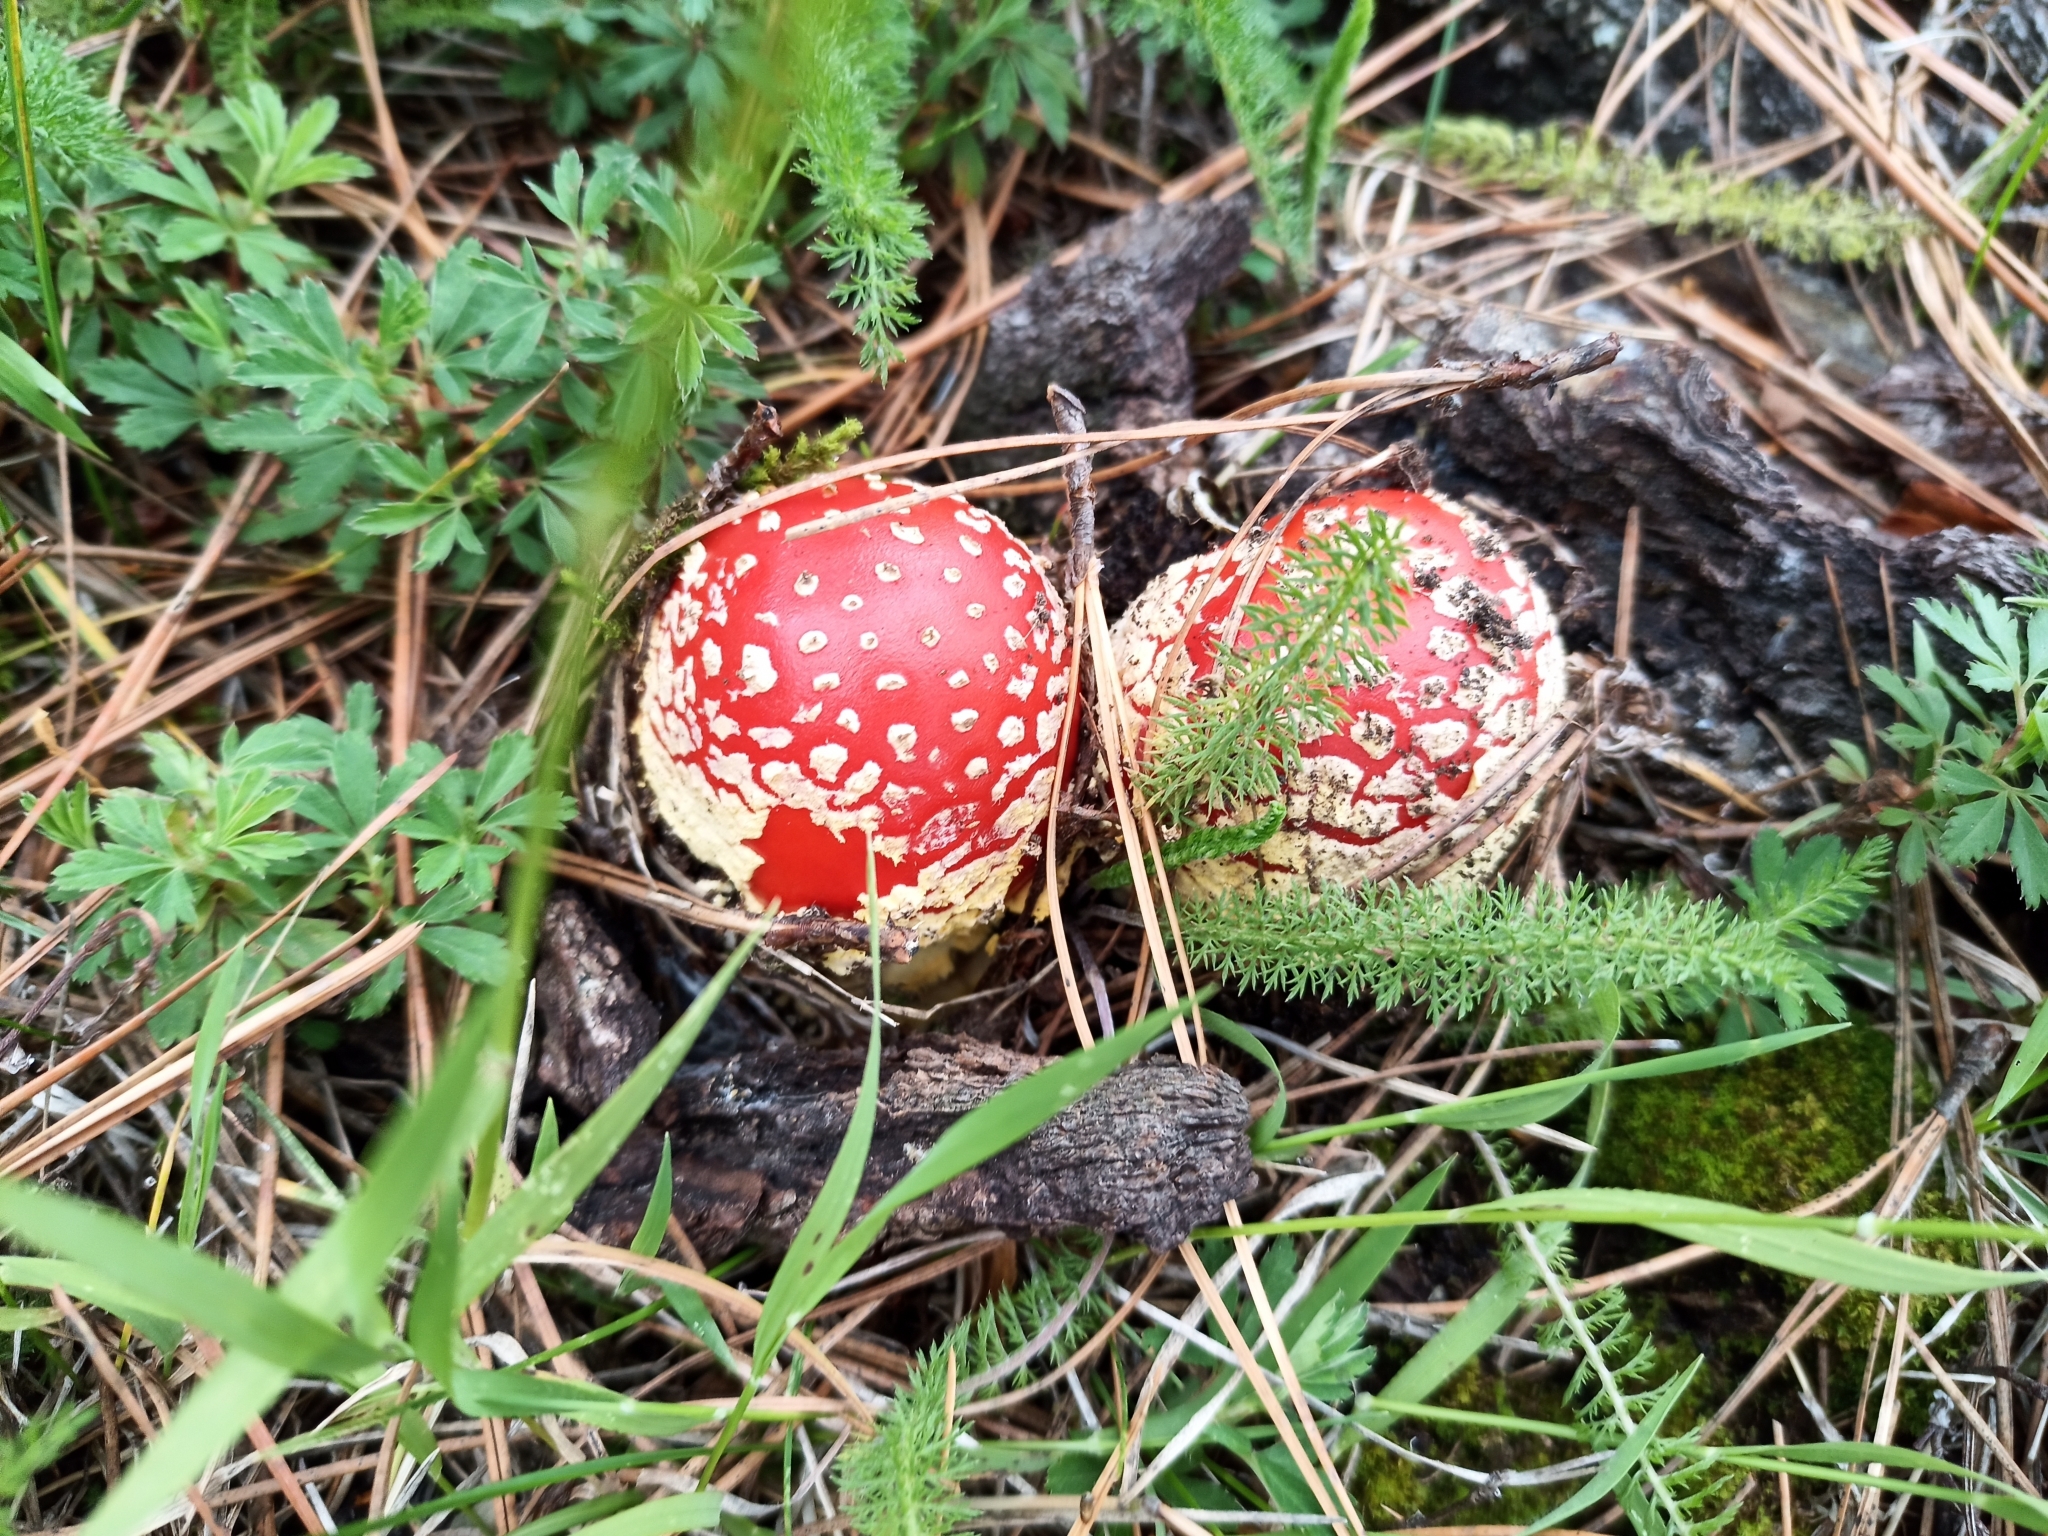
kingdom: Fungi
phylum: Basidiomycota
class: Agaricomycetes
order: Agaricales
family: Amanitaceae
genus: Amanita
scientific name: Amanita muscaria
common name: Fly agaric
